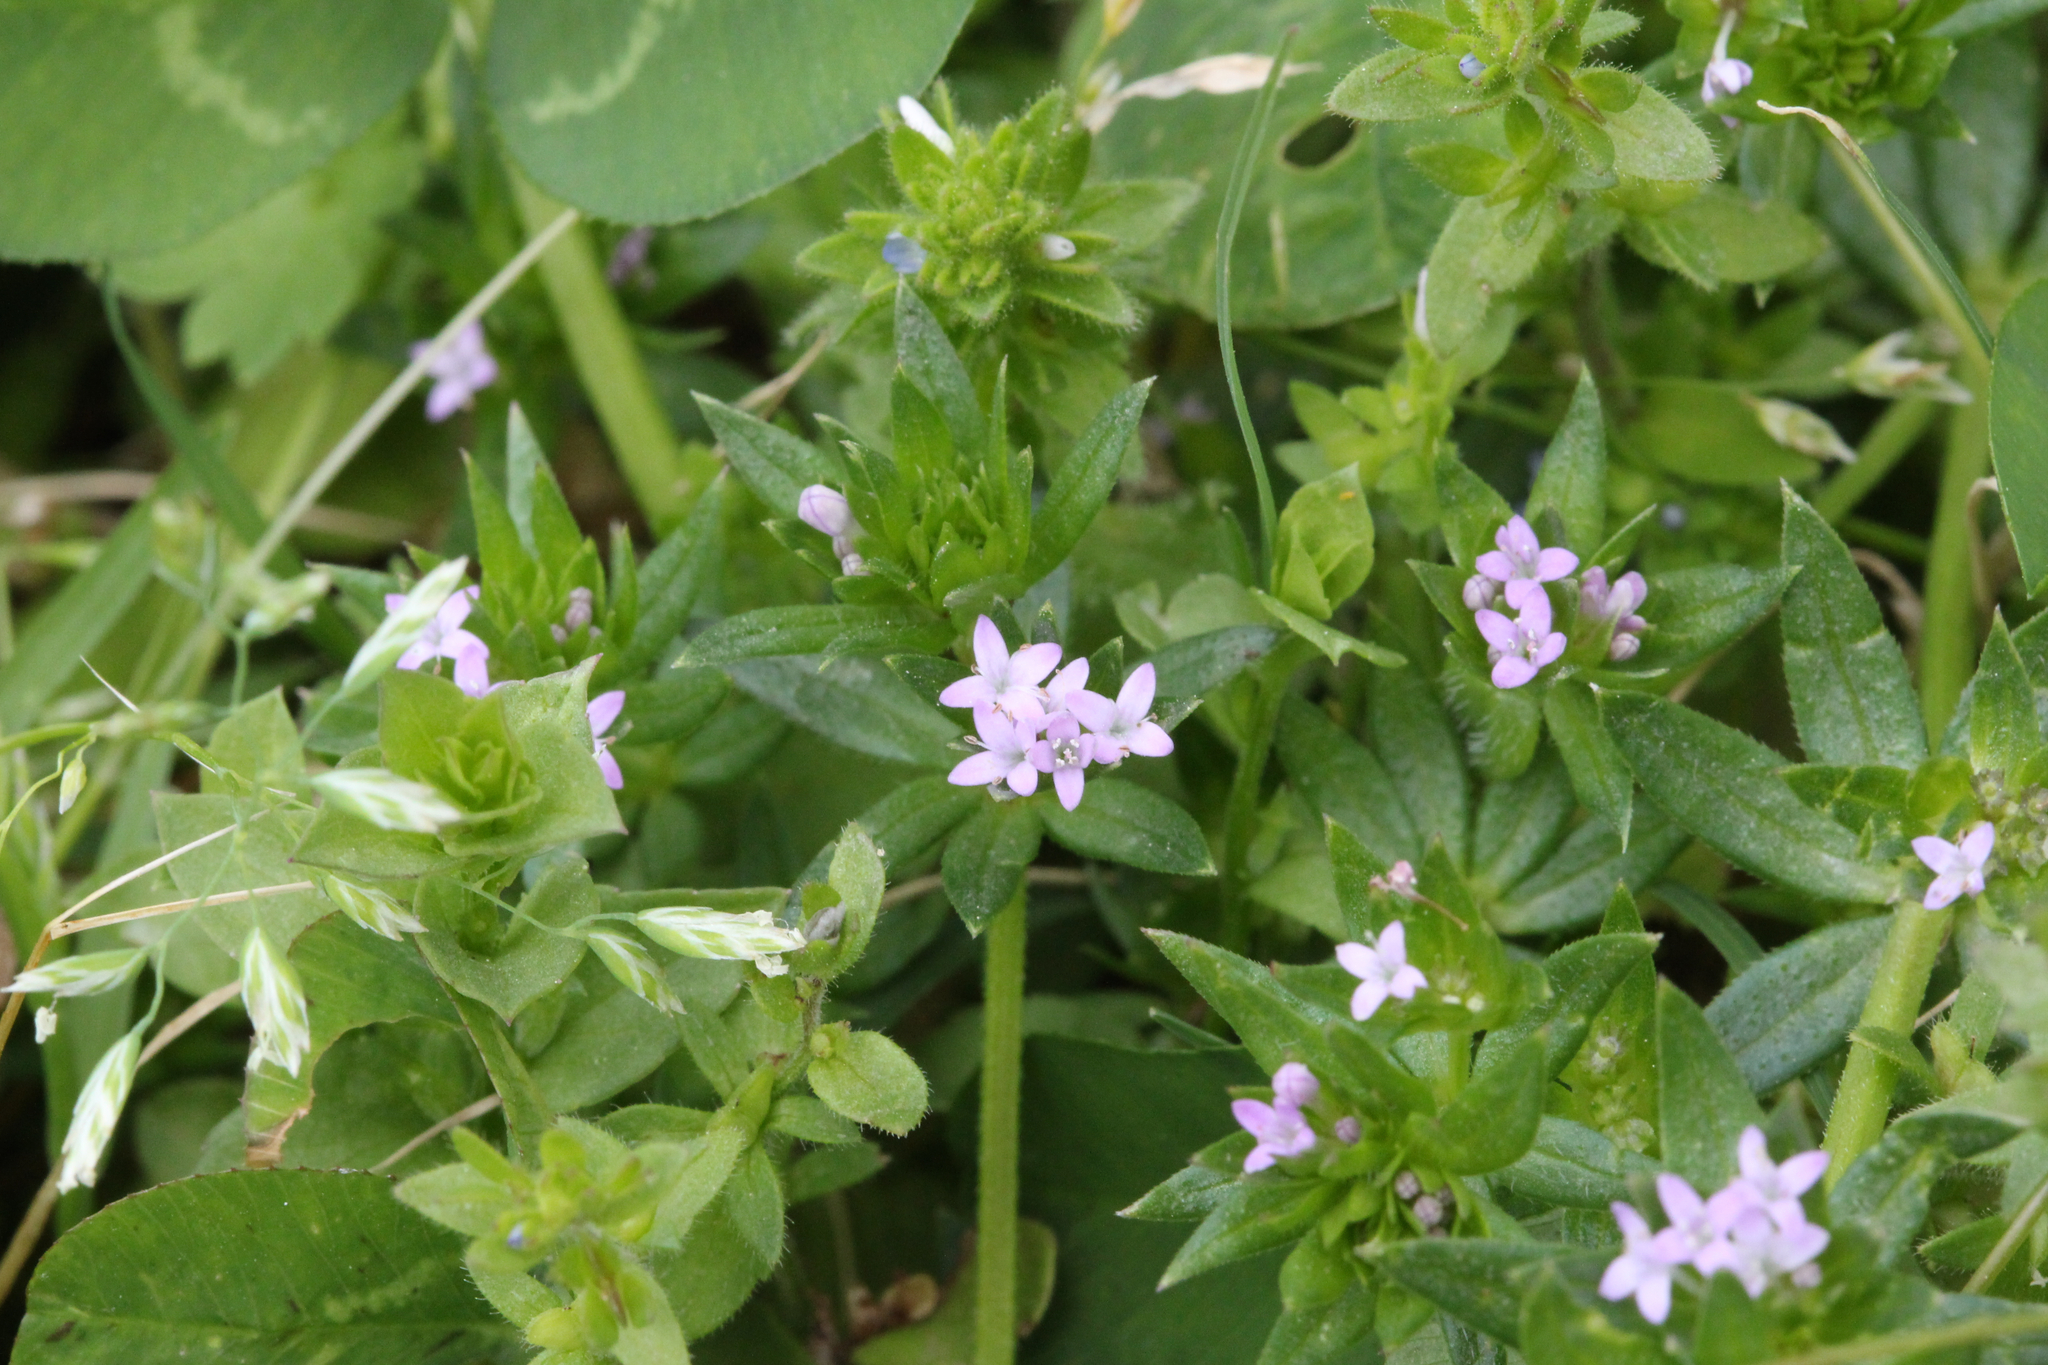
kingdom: Plantae
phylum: Tracheophyta
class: Magnoliopsida
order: Gentianales
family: Rubiaceae
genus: Sherardia
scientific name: Sherardia arvensis
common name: Field madder
